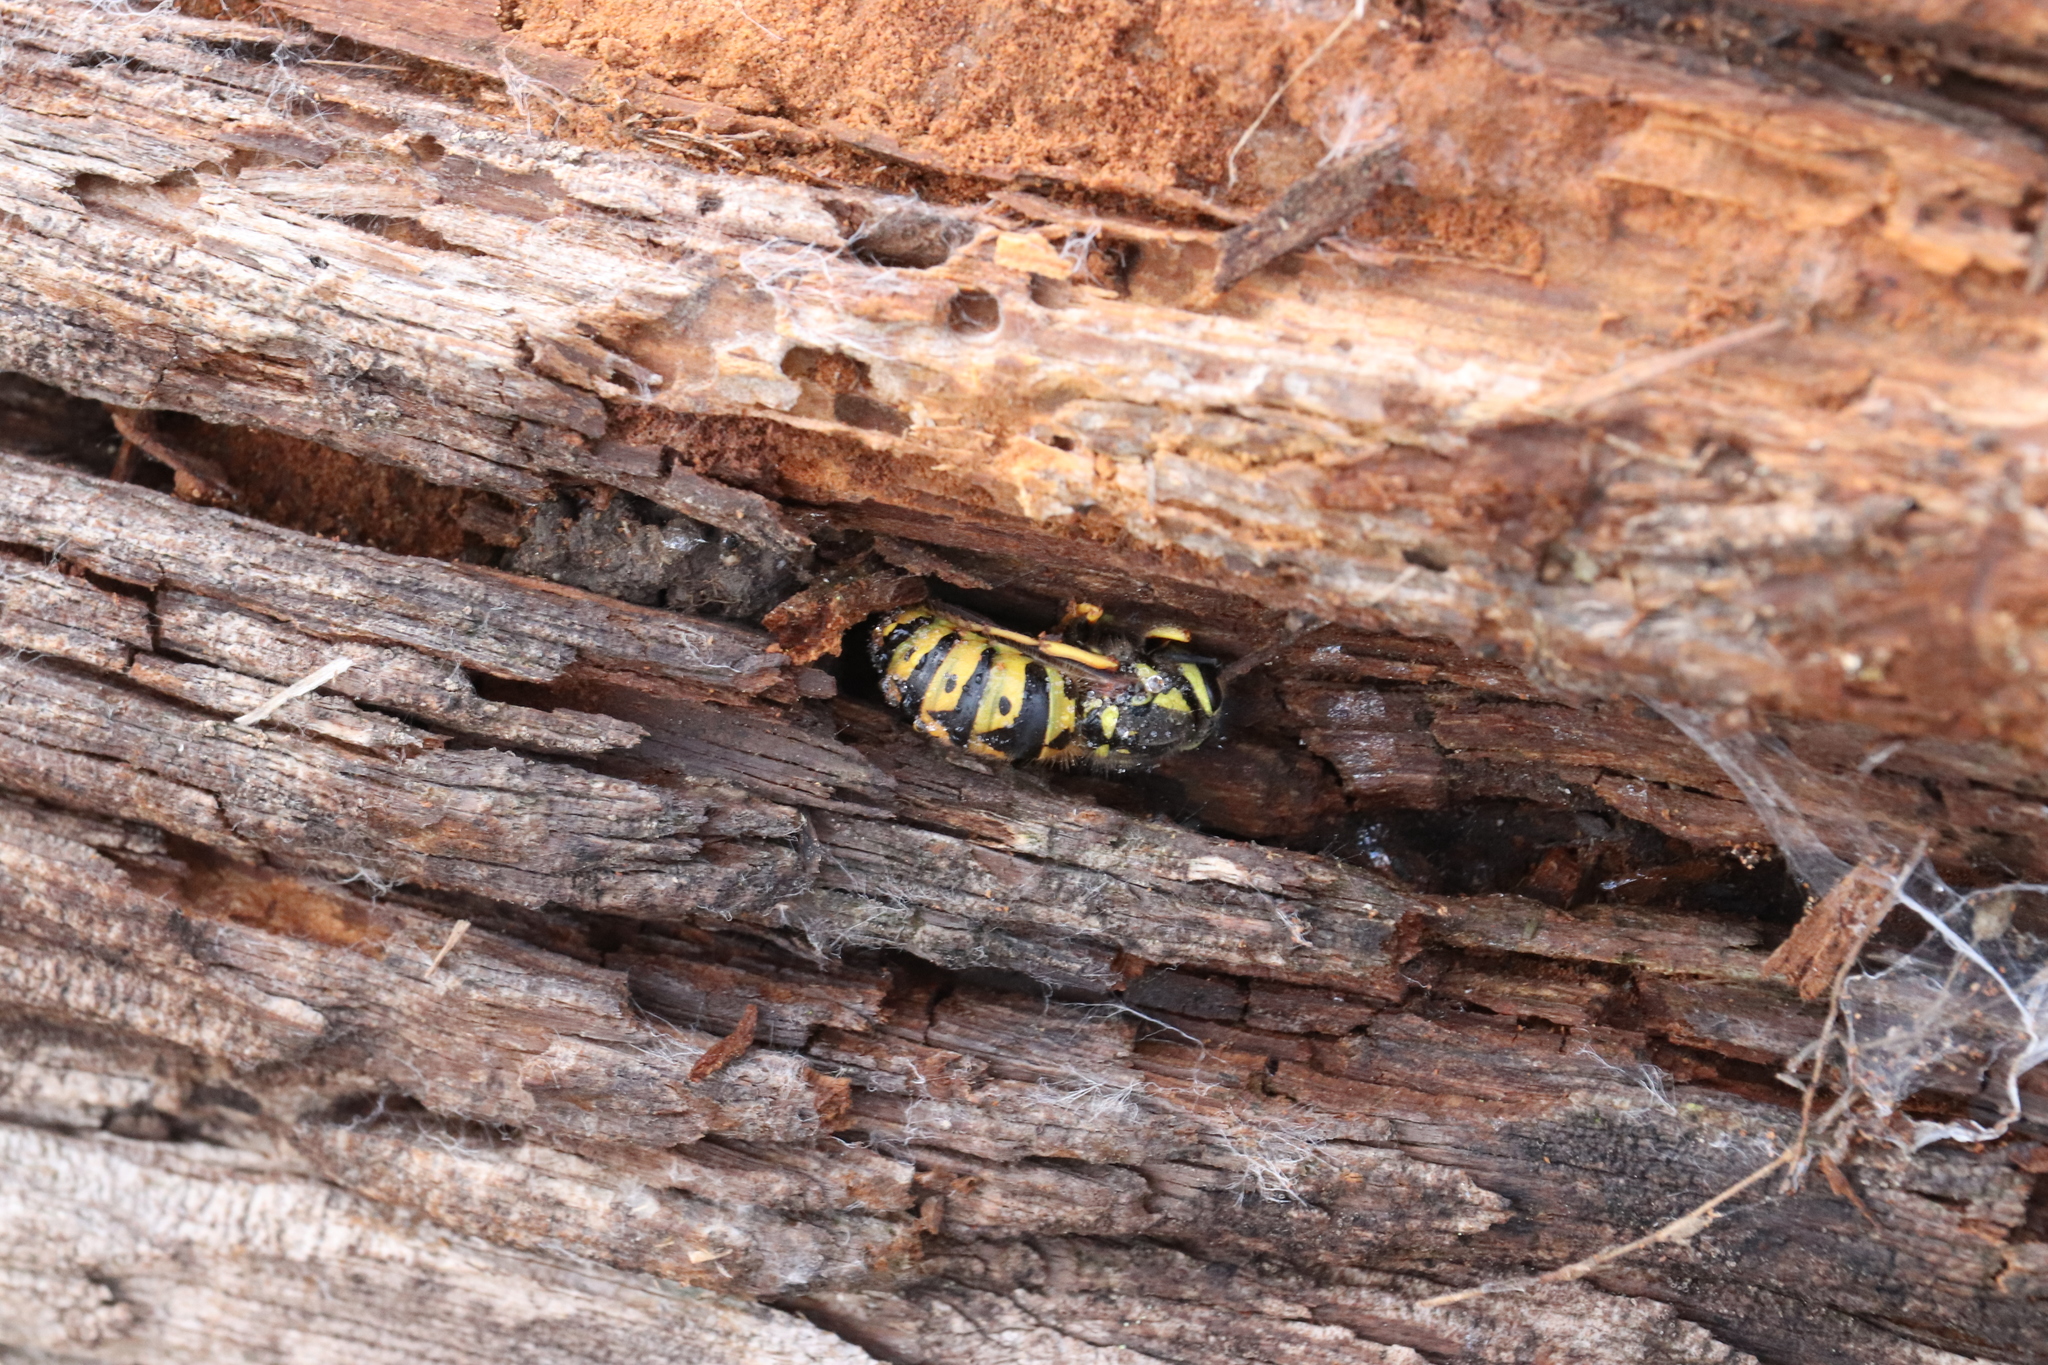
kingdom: Animalia
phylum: Arthropoda
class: Insecta
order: Hymenoptera
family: Vespidae
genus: Vespula
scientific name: Vespula pensylvanica
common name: Western yellowjacket
